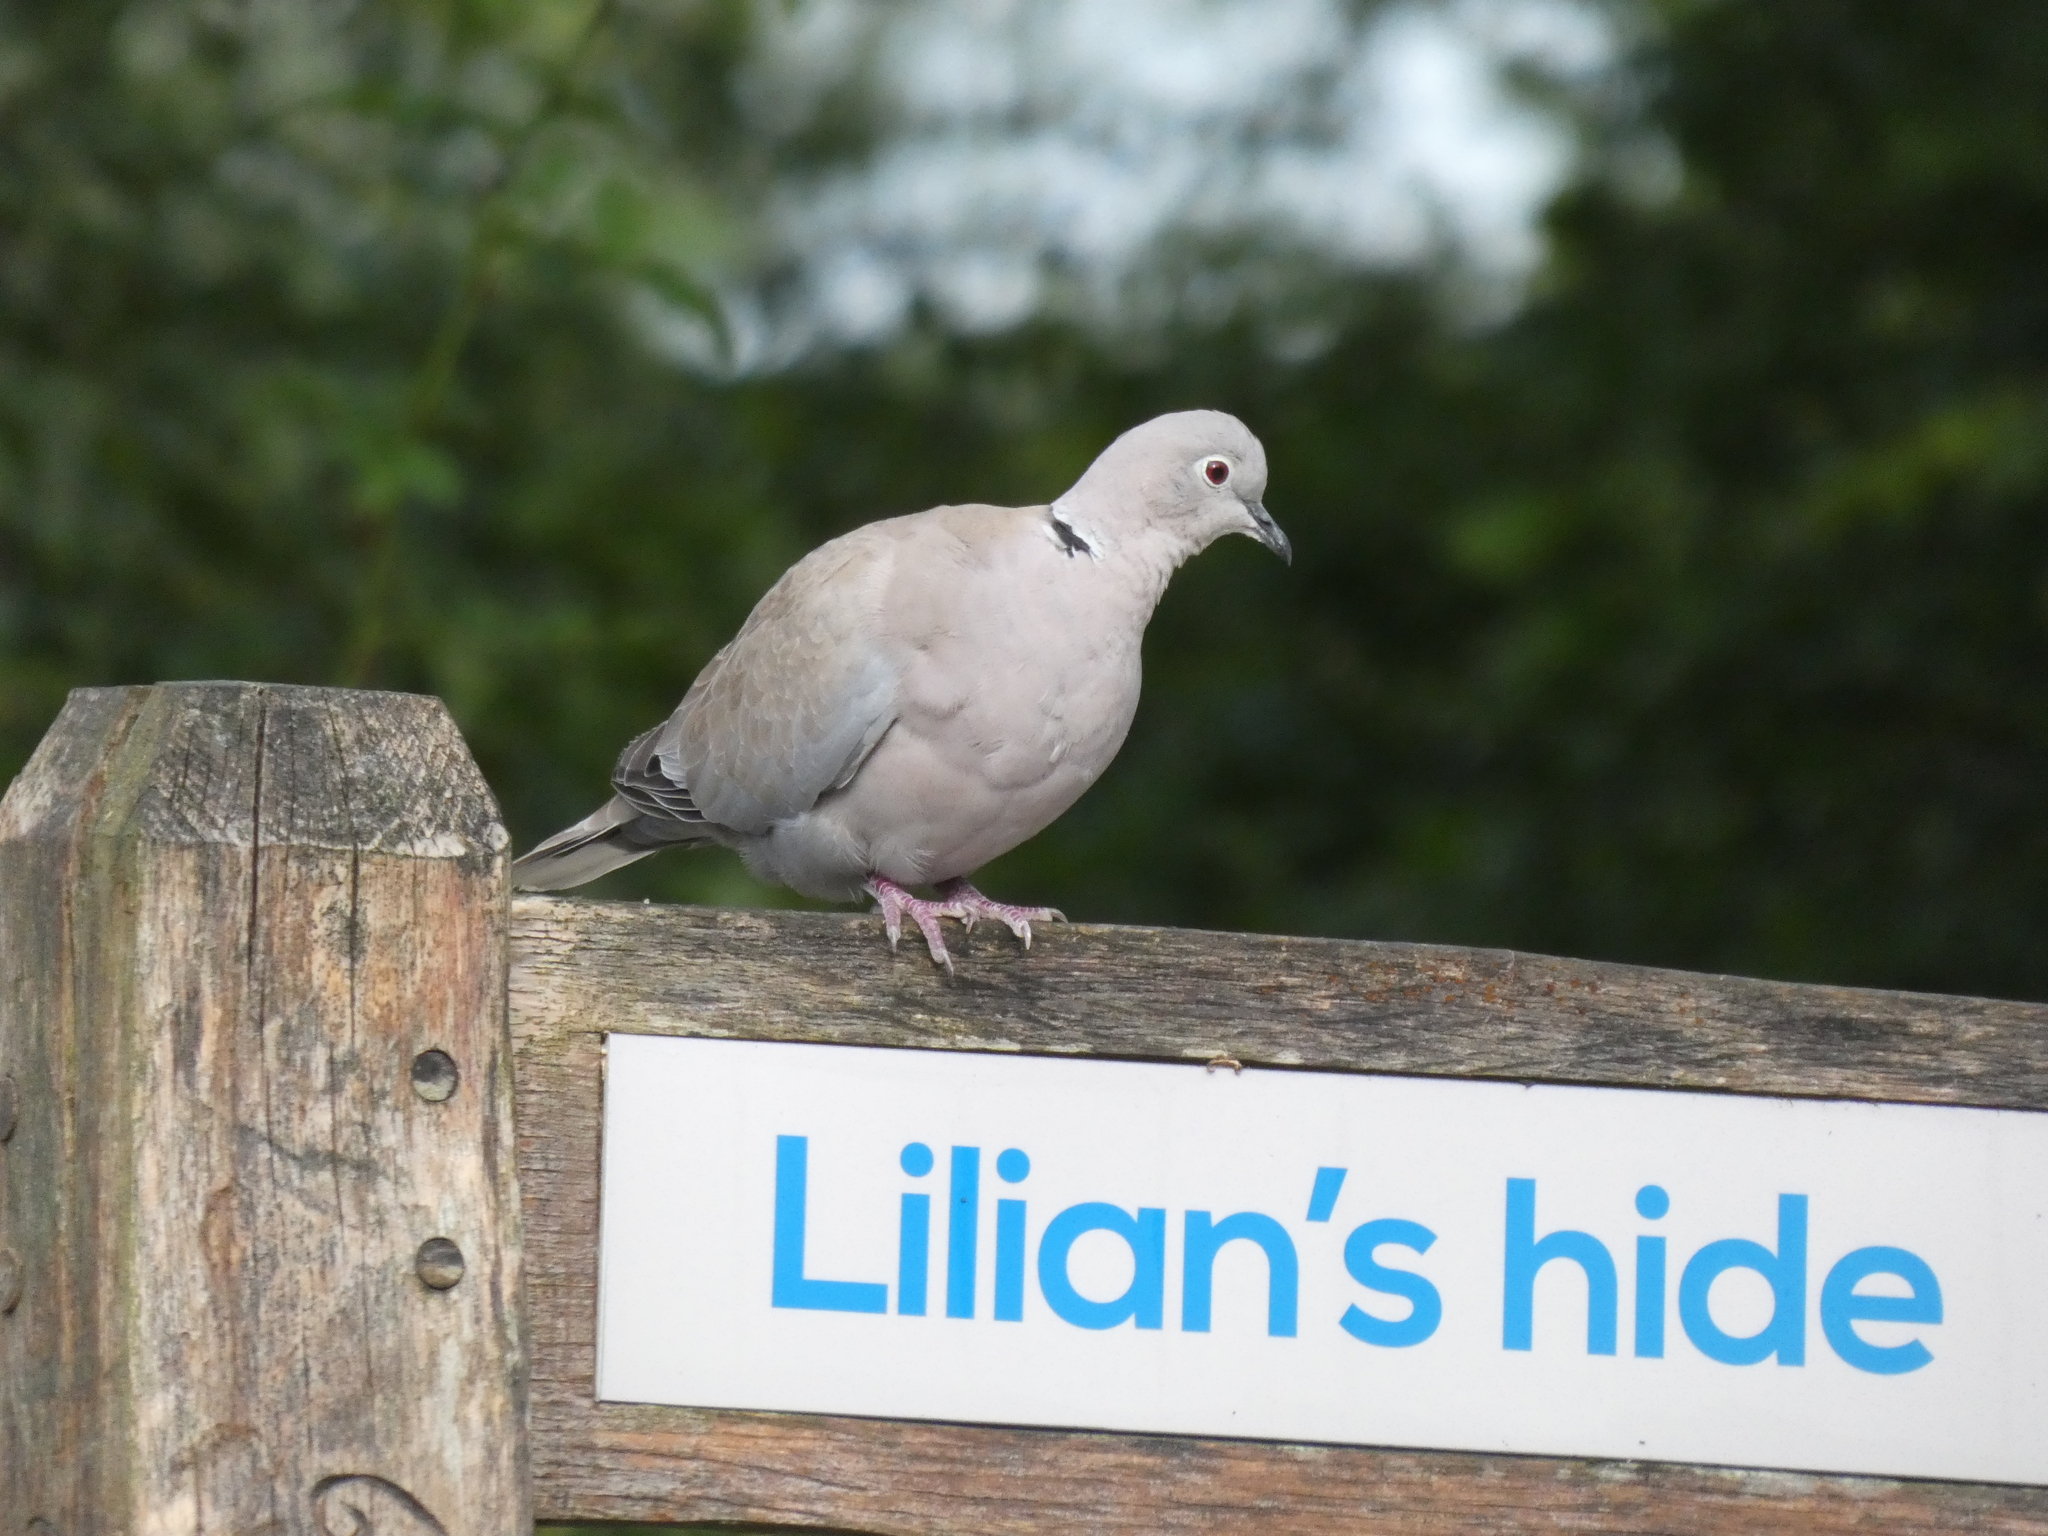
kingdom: Animalia
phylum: Chordata
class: Aves
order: Columbiformes
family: Columbidae
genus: Streptopelia
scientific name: Streptopelia decaocto
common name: Eurasian collared dove
